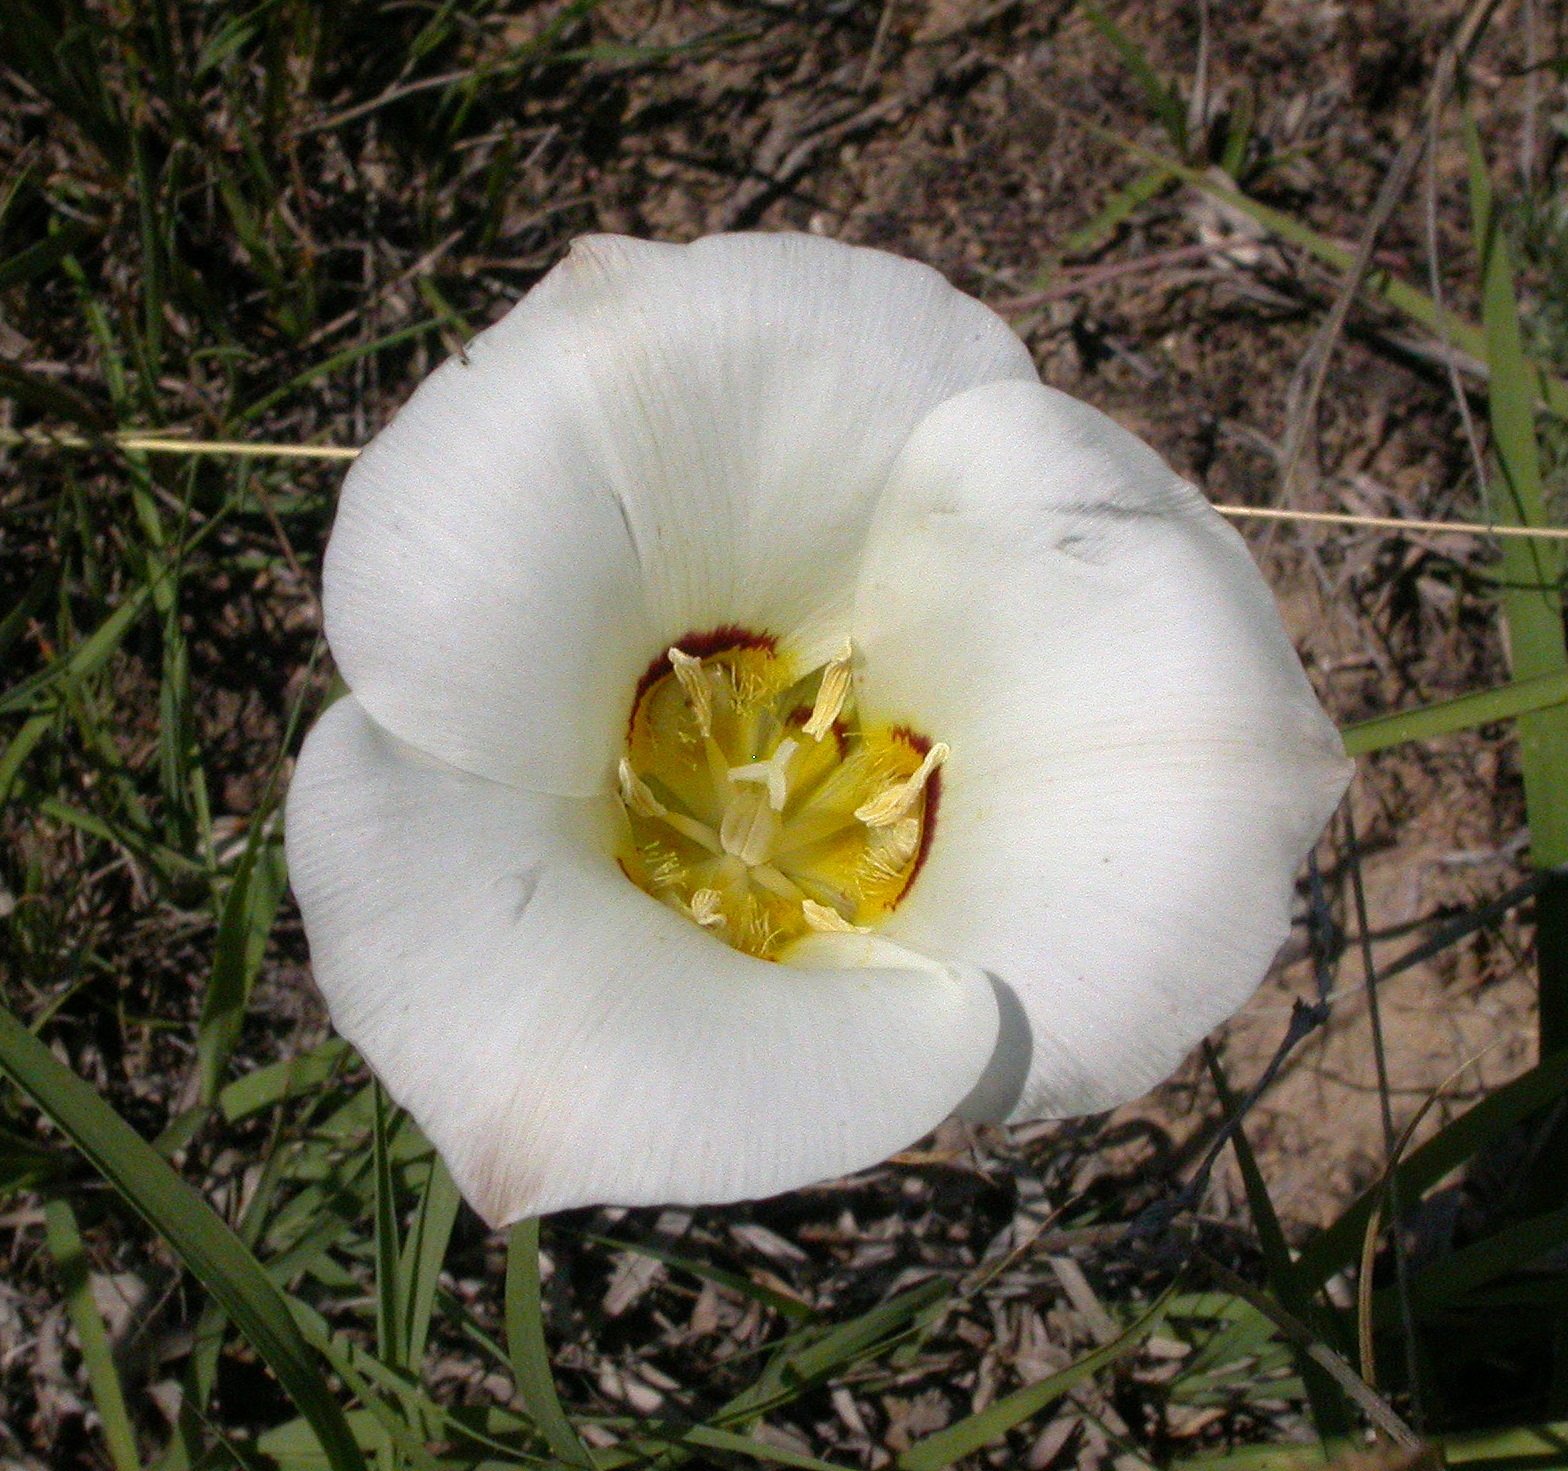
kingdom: Plantae
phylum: Tracheophyta
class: Liliopsida
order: Liliales
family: Liliaceae
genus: Calochortus
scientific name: Calochortus nuttallii
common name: Sego-lily
